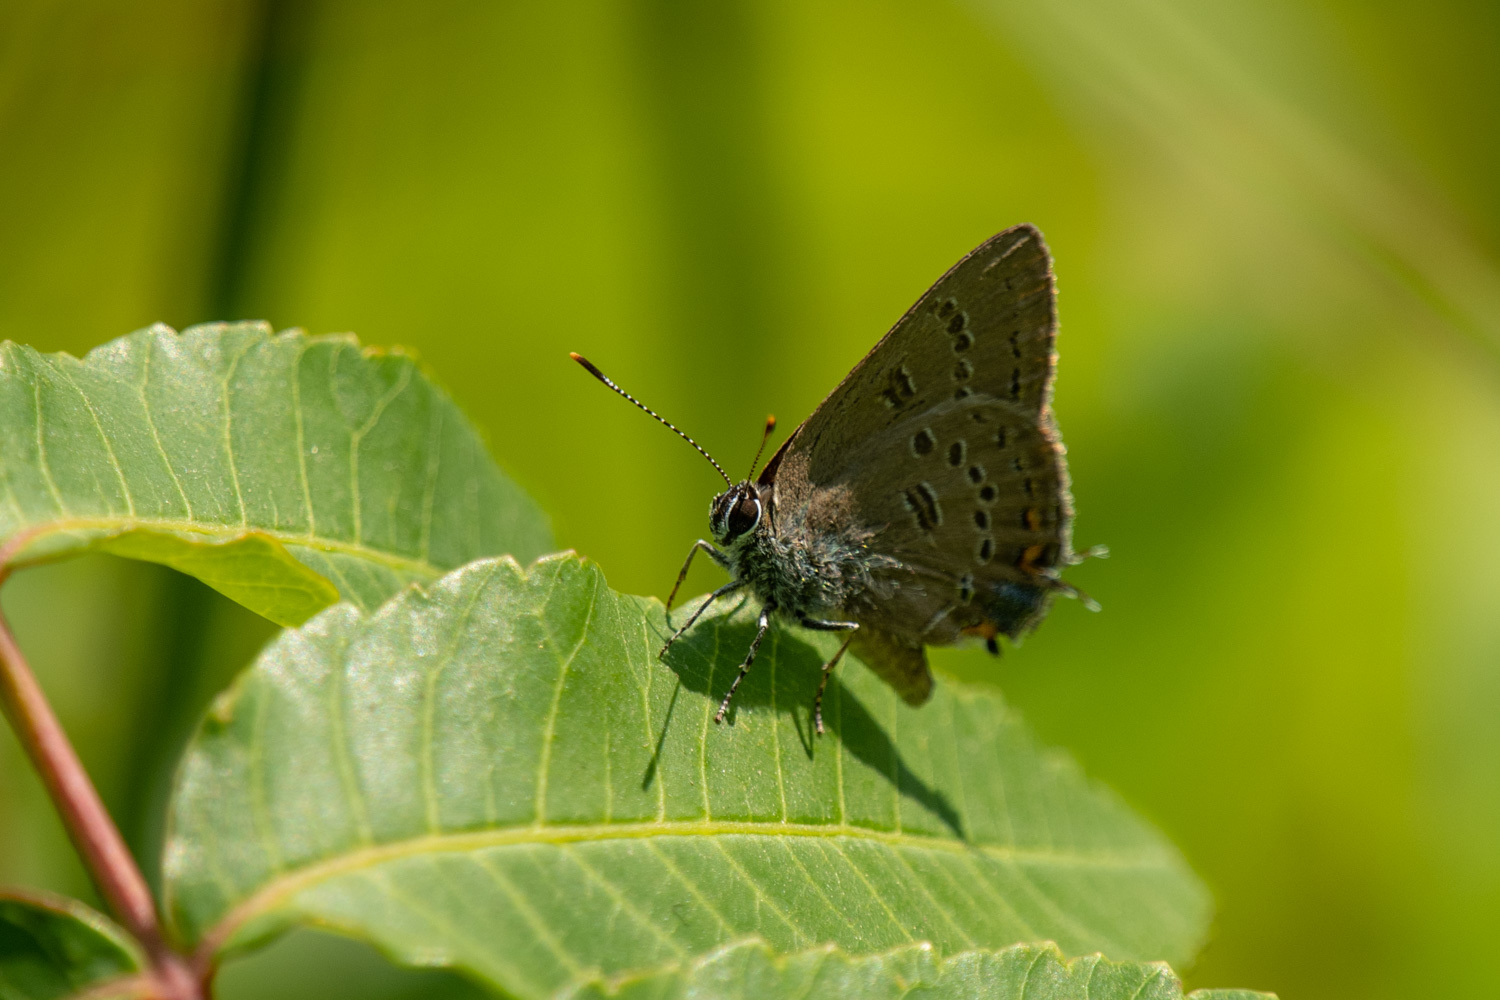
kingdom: Animalia
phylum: Arthropoda
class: Insecta
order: Lepidoptera
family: Lycaenidae
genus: Satyrium
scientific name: Satyrium edwardsii
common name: Edwards' hairstreak
